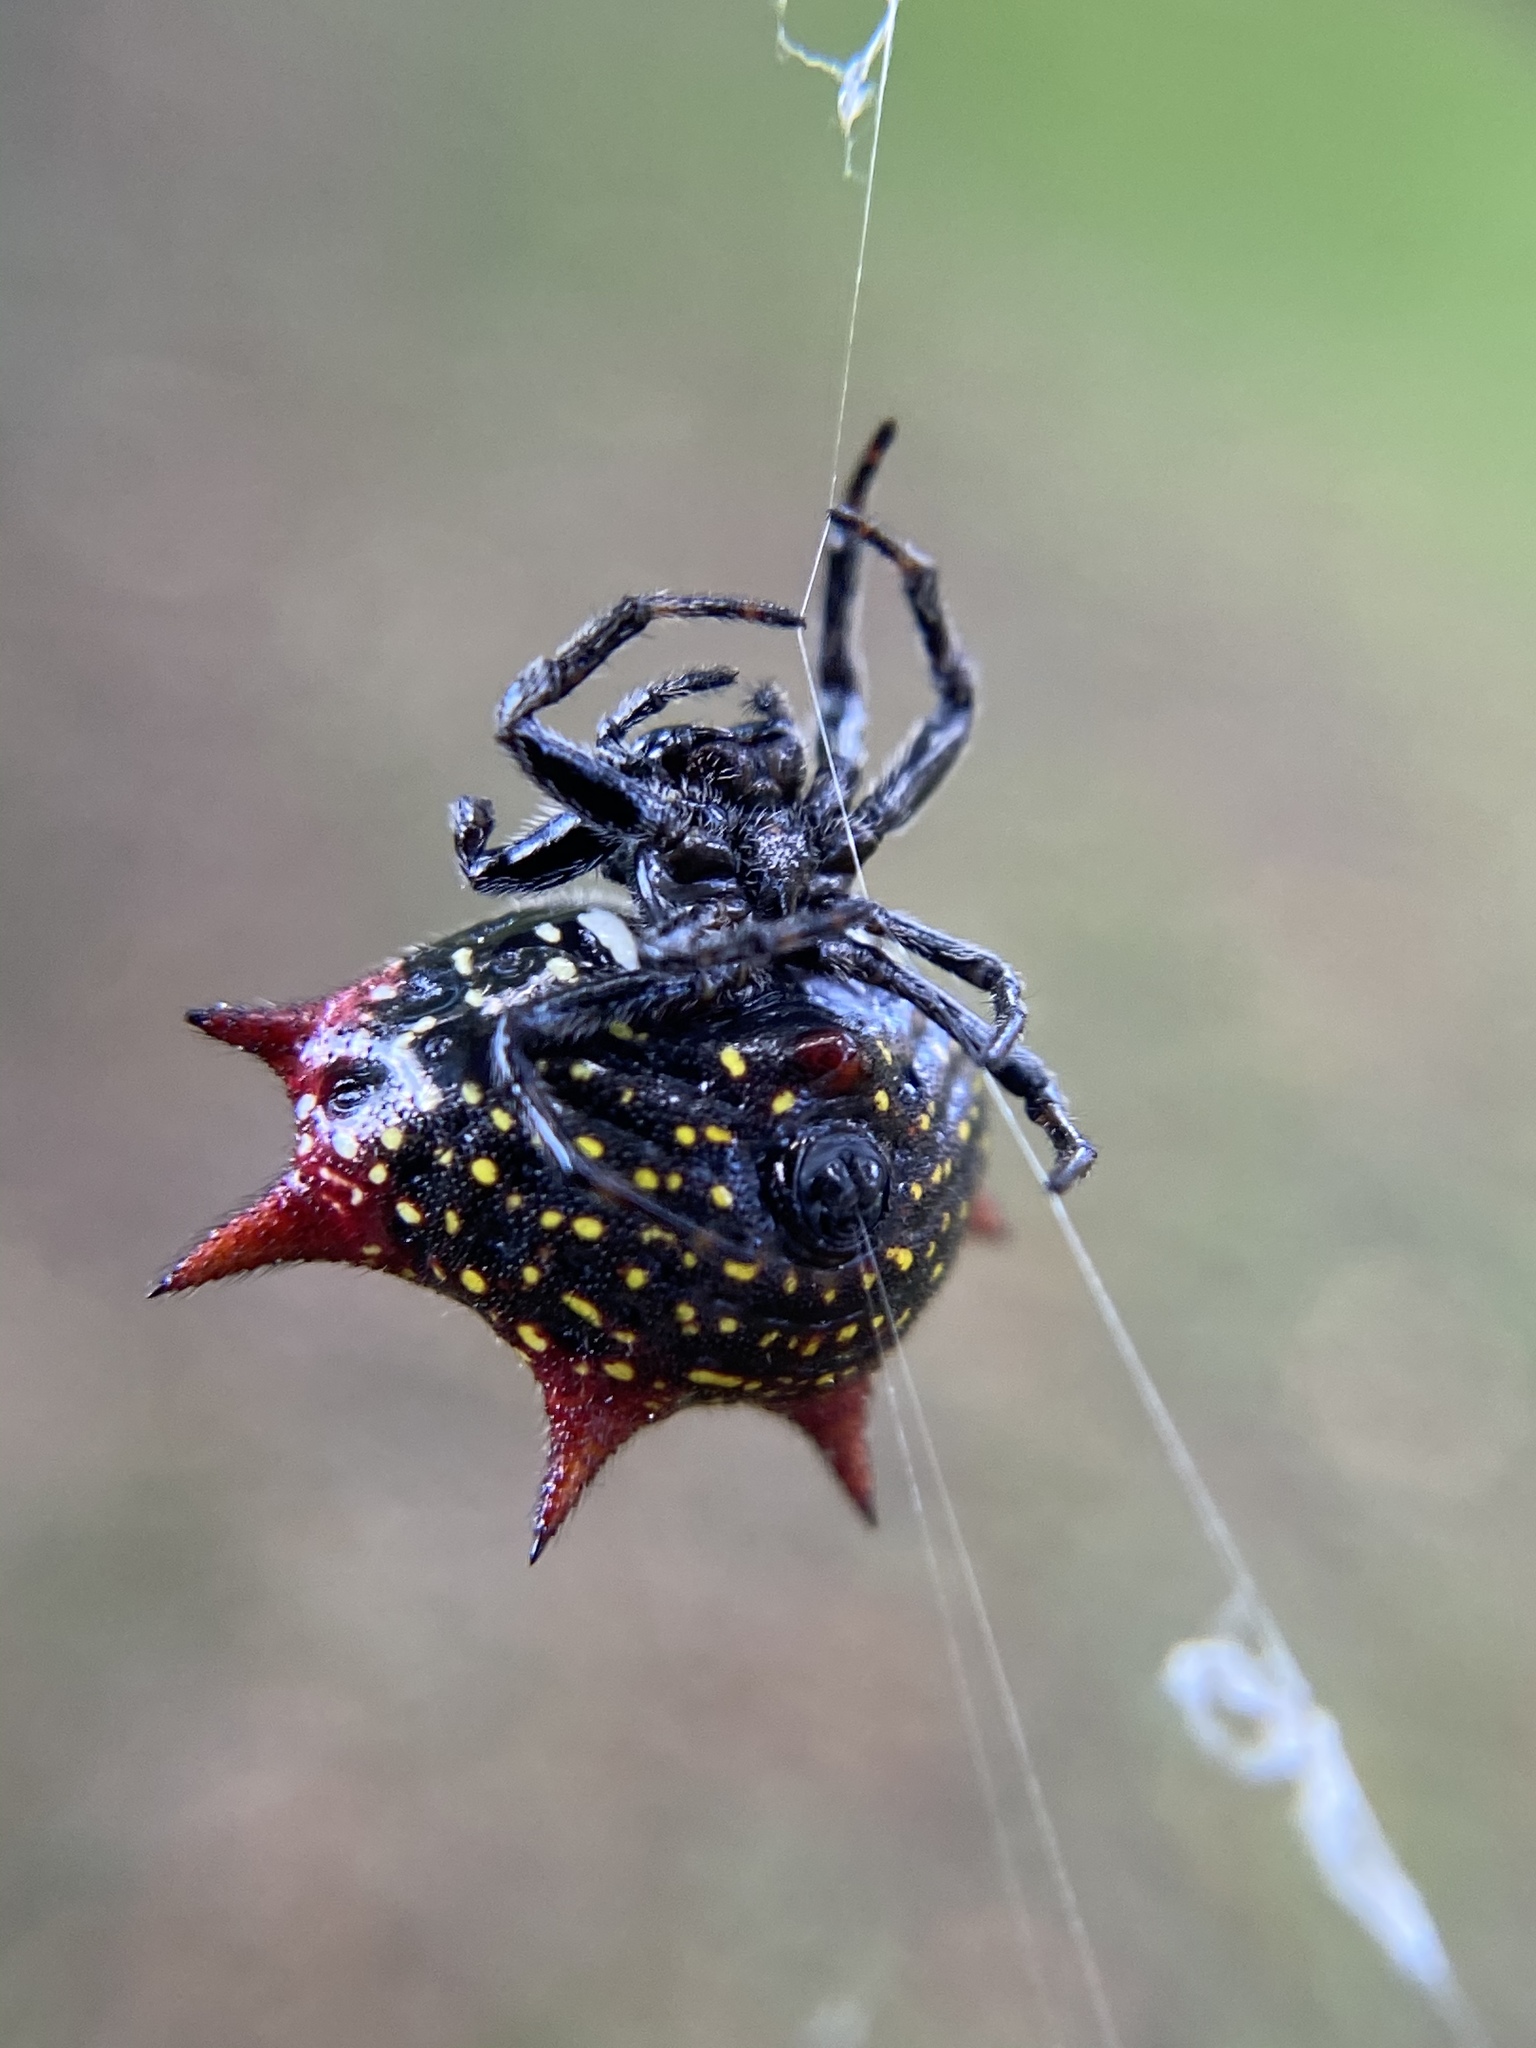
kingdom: Animalia
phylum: Arthropoda
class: Arachnida
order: Araneae
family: Araneidae
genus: Gasteracantha
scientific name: Gasteracantha cancriformis
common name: Orb weavers
